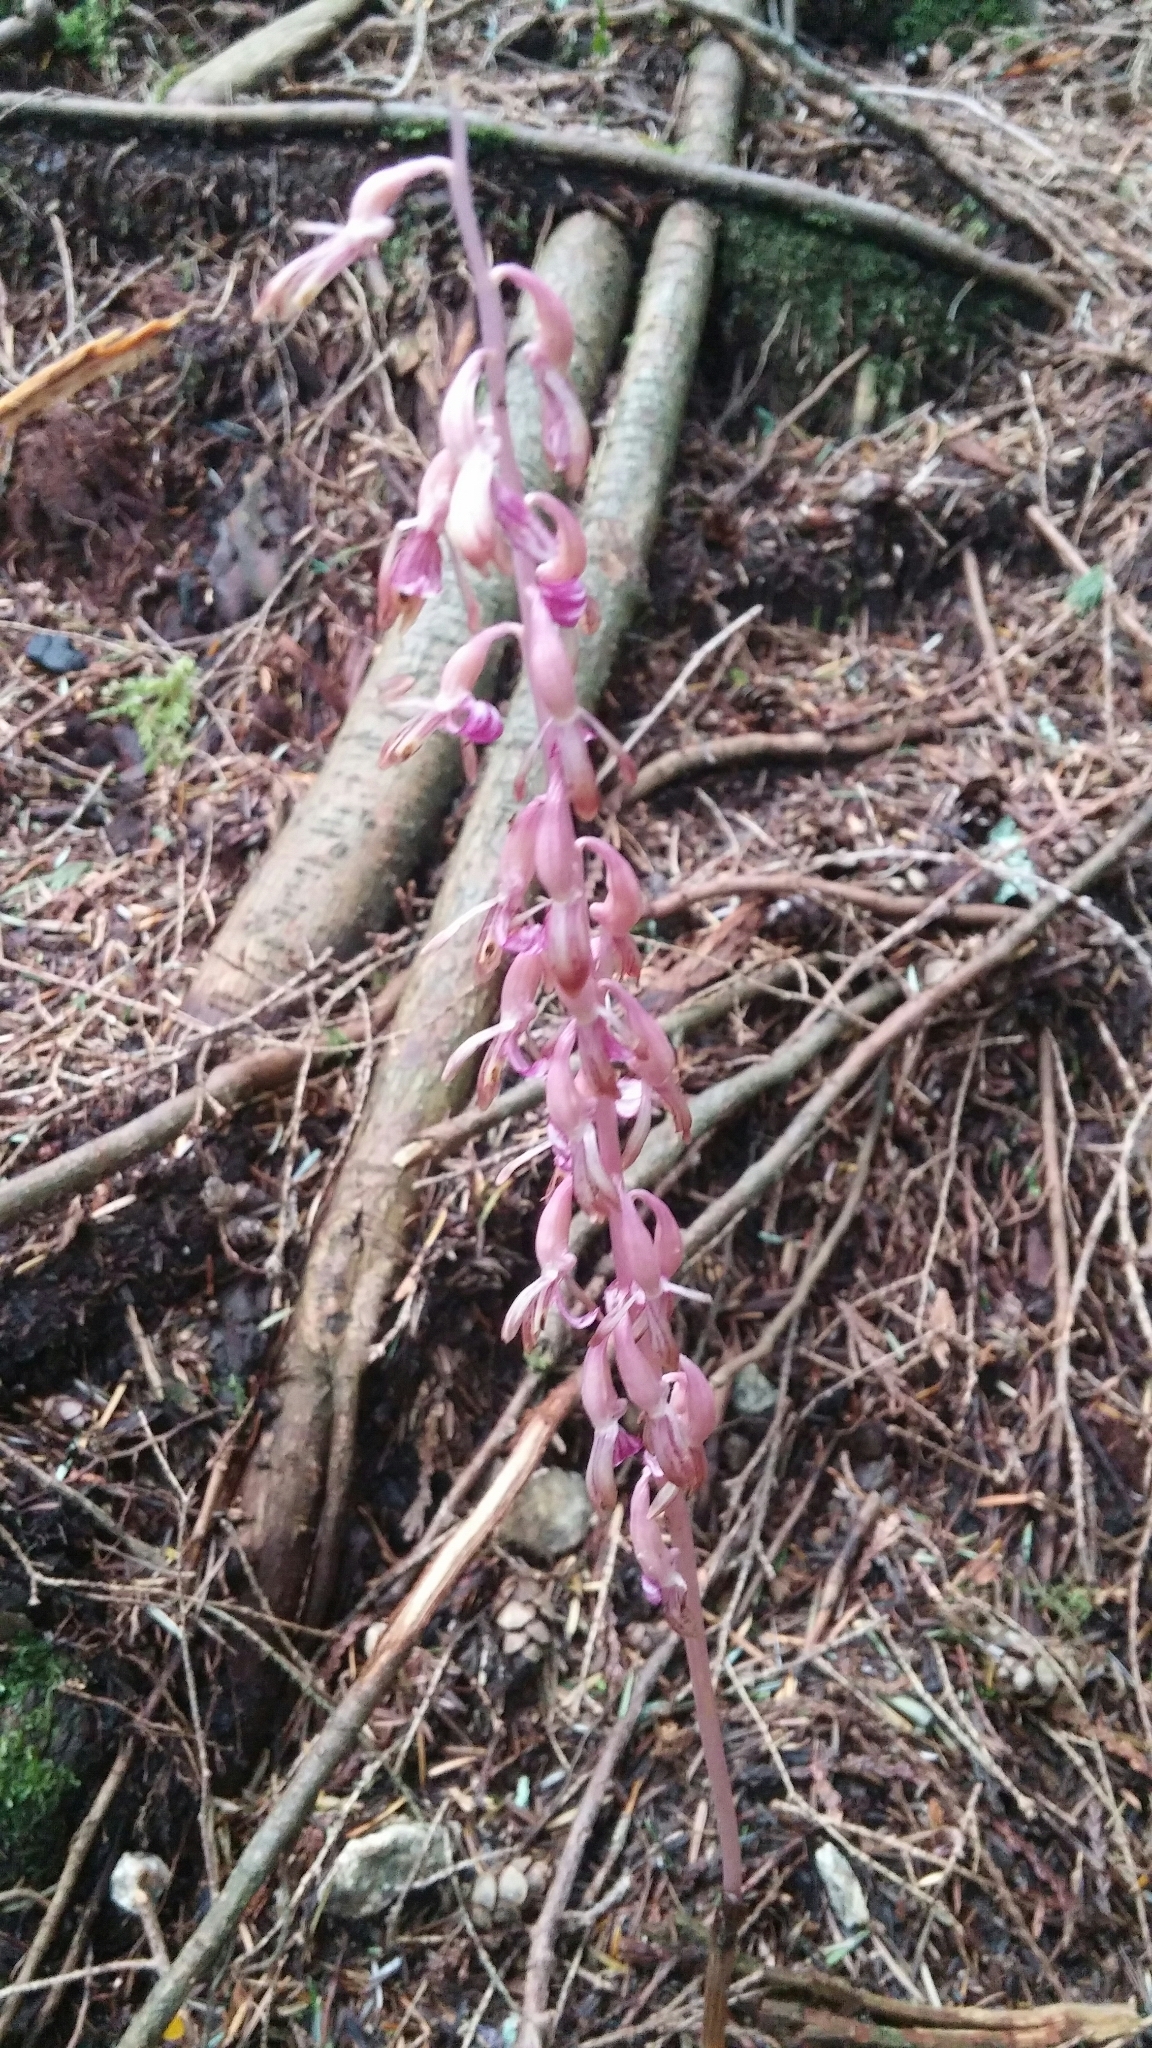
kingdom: Plantae
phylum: Tracheophyta
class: Liliopsida
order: Asparagales
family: Orchidaceae
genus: Corallorhiza
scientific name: Corallorhiza mertensiana
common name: Pacific coralroot
